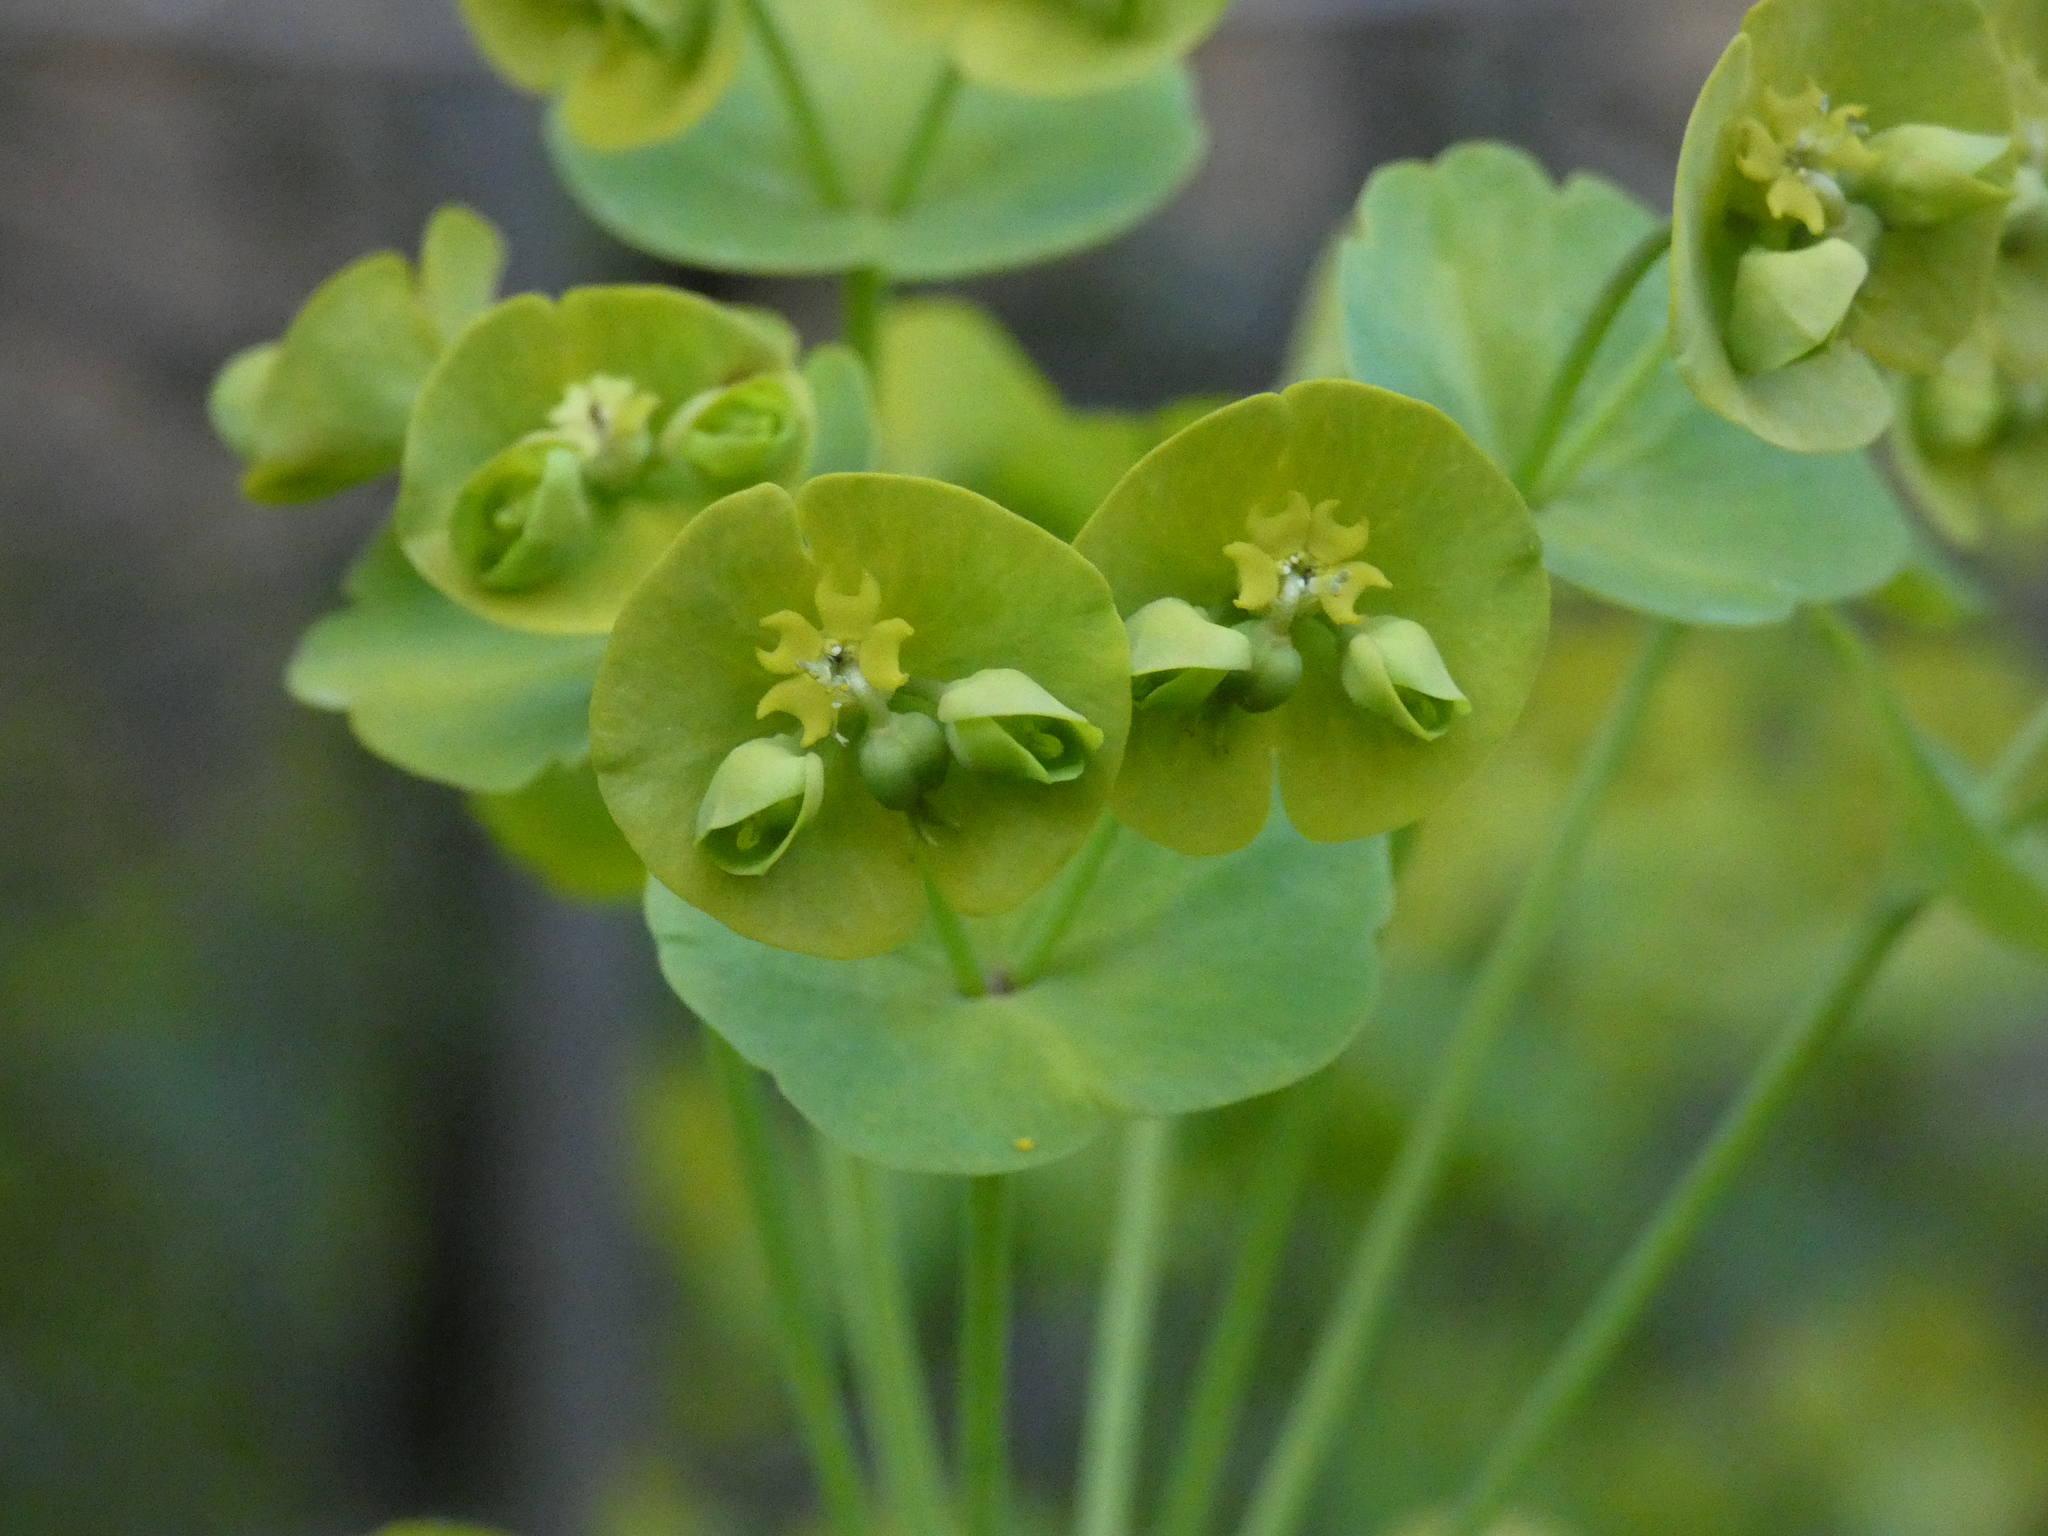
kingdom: Plantae
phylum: Tracheophyta
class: Magnoliopsida
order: Malpighiales
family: Euphorbiaceae
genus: Euphorbia
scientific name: Euphorbia amygdaloides
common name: Wood spurge
